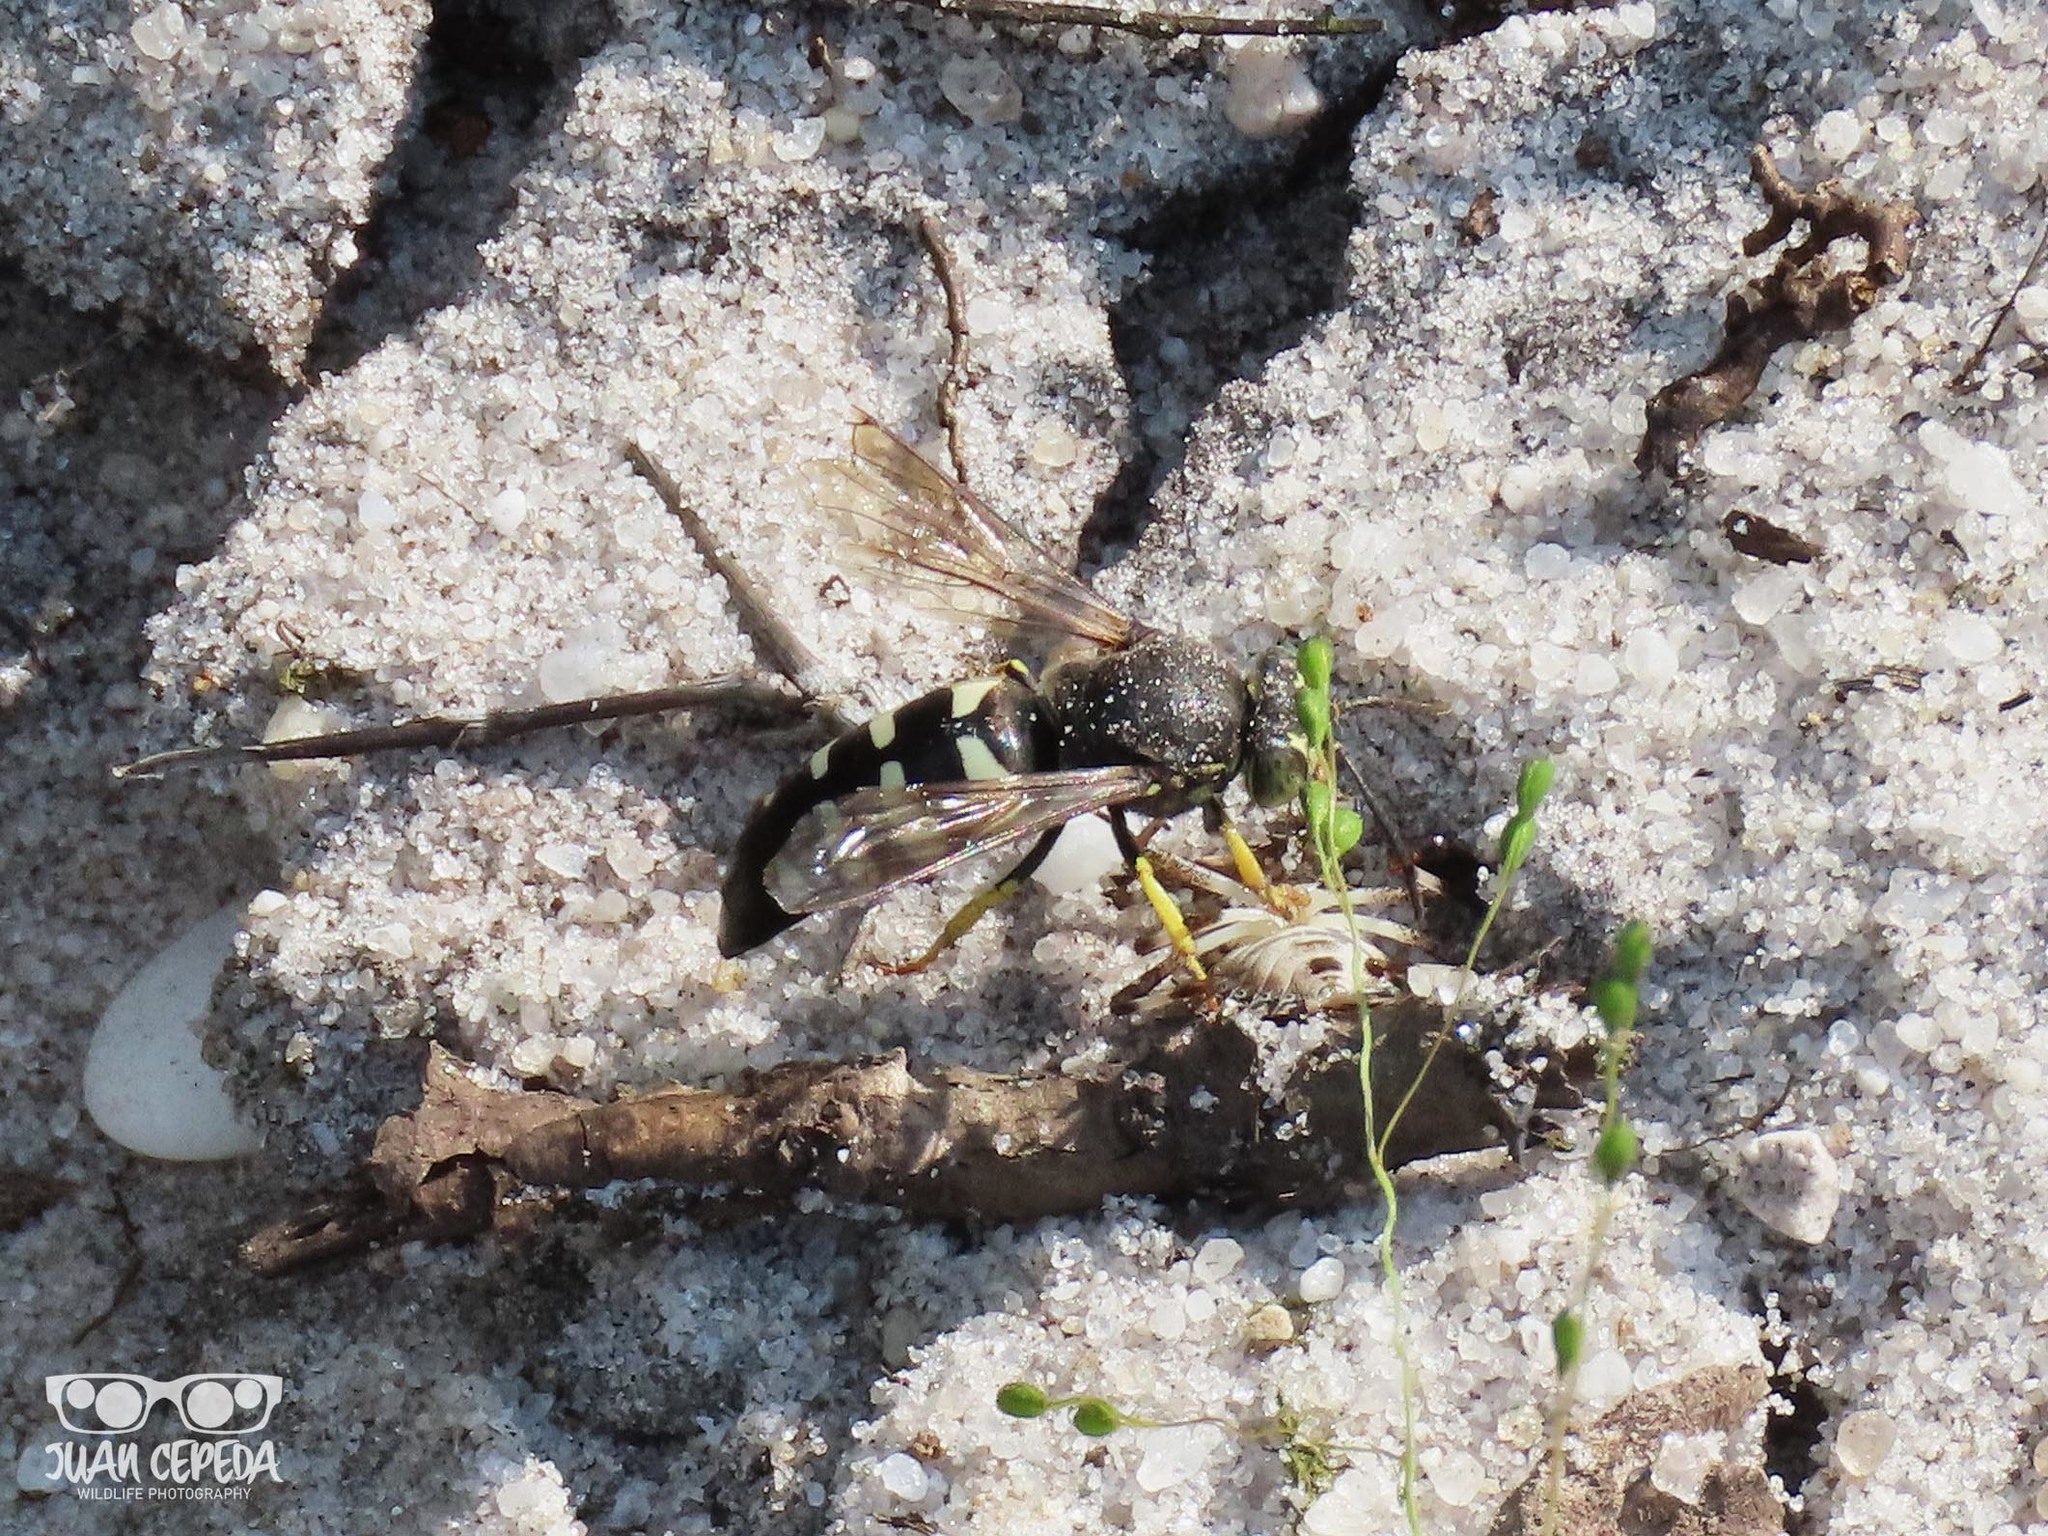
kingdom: Animalia
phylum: Arthropoda
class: Insecta
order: Hymenoptera
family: Crabronidae
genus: Bicyrtes
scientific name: Bicyrtes quadrifasciatus
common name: Four-banded stink bug hunter wasp
